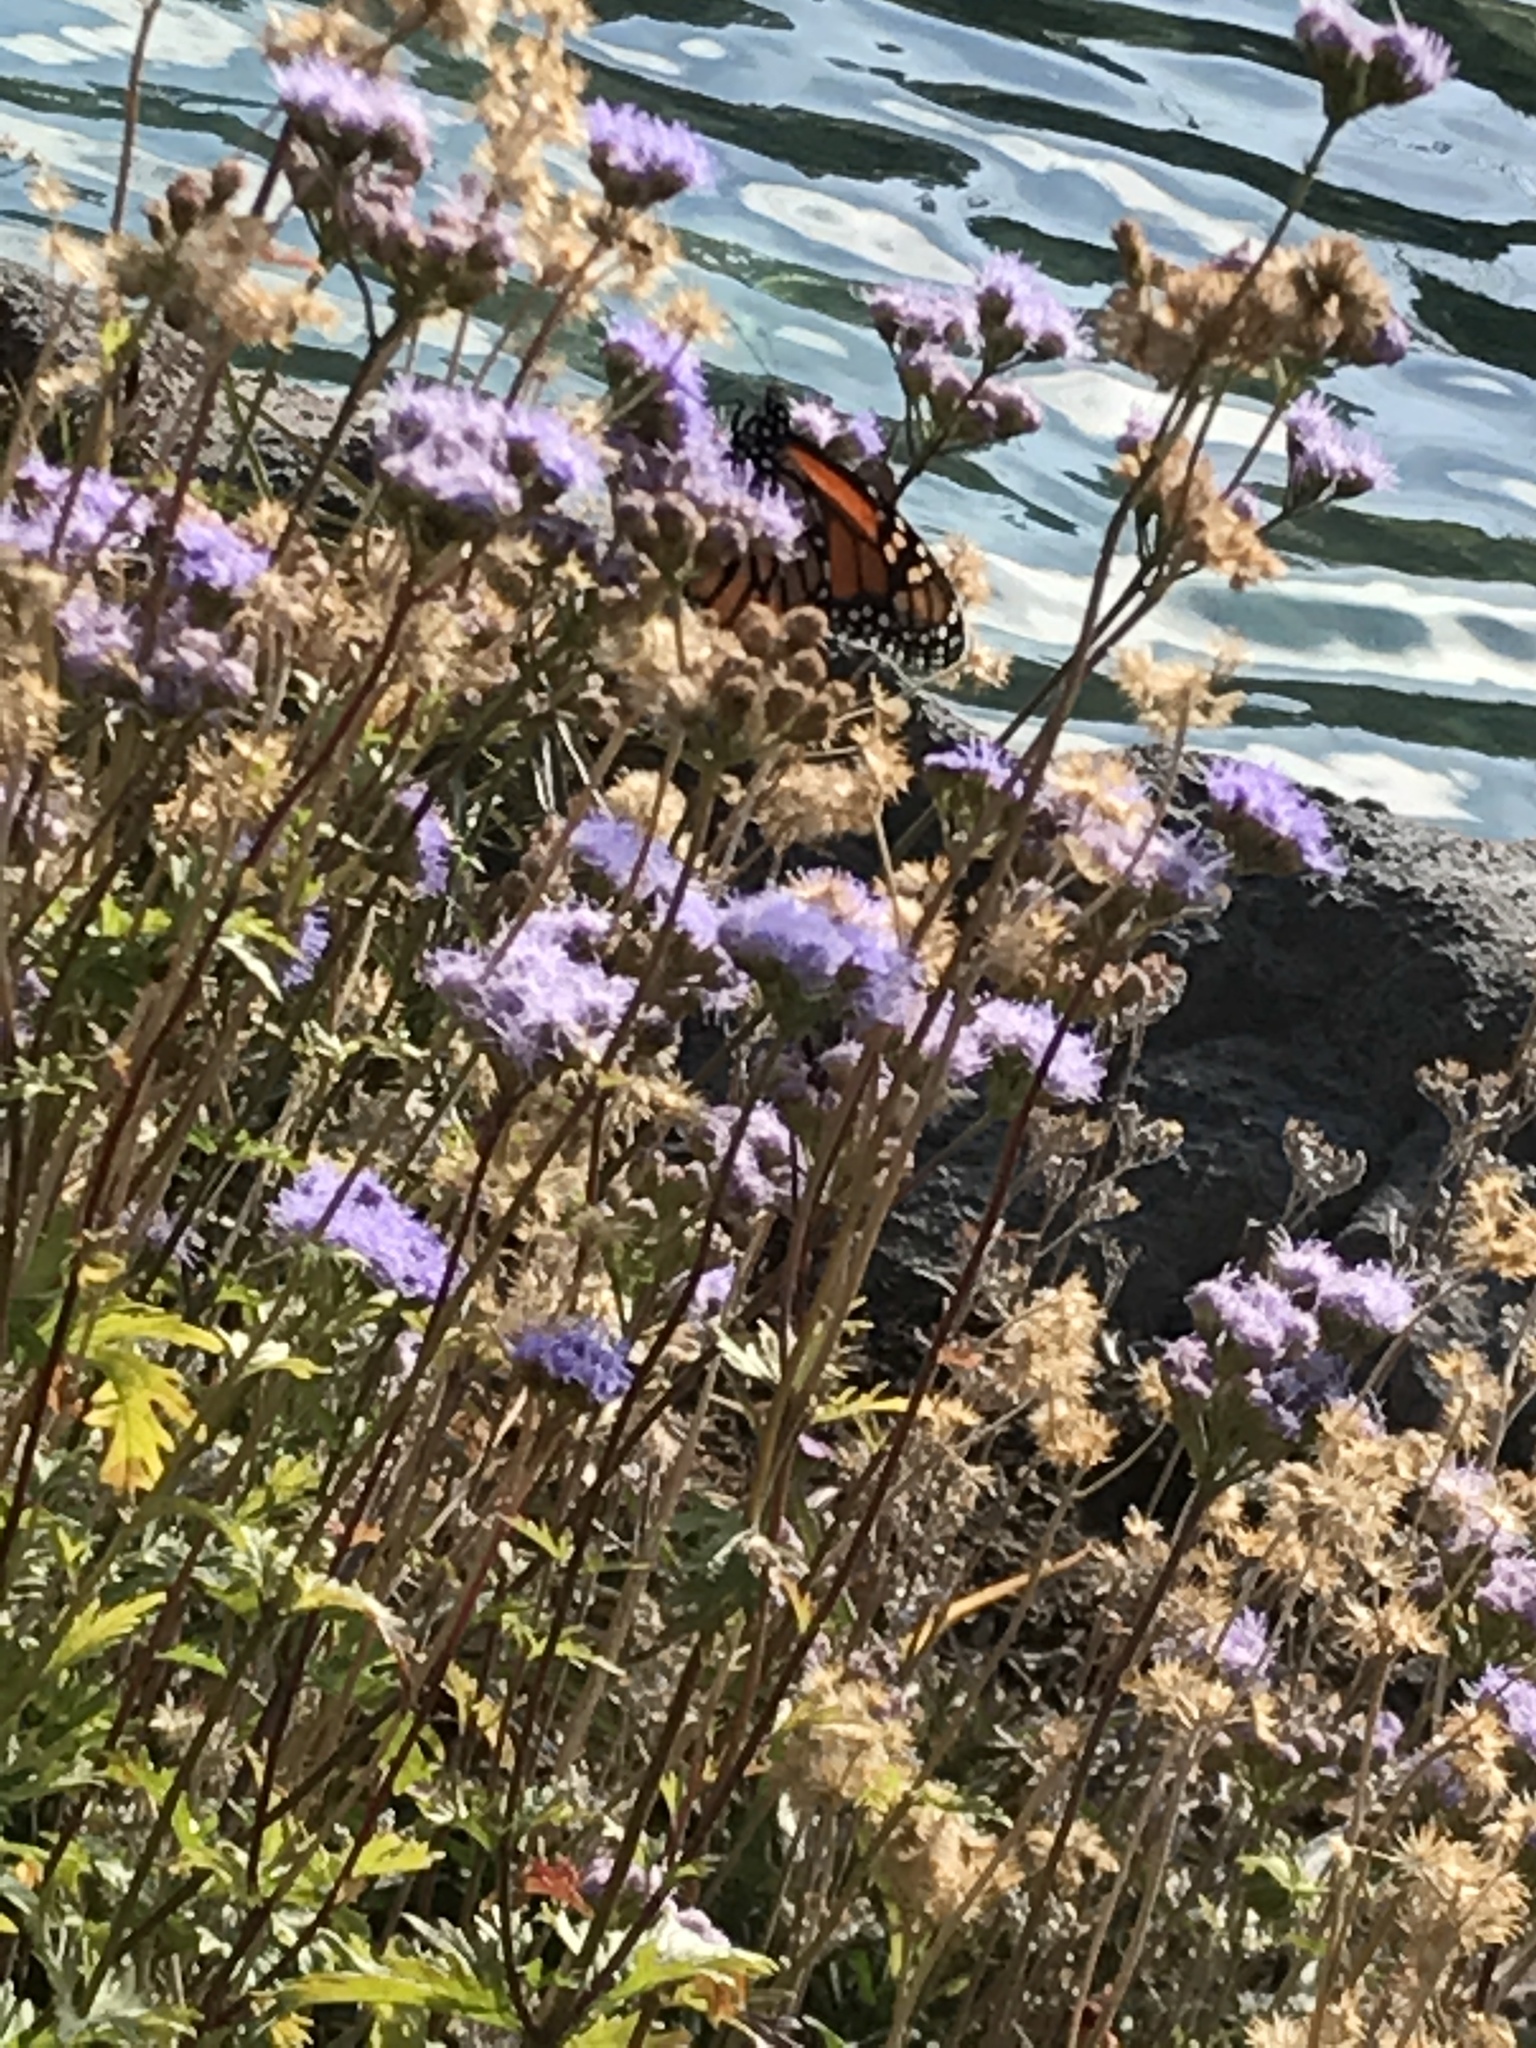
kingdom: Animalia
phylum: Arthropoda
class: Insecta
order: Lepidoptera
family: Nymphalidae
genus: Danaus
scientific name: Danaus plexippus
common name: Monarch
